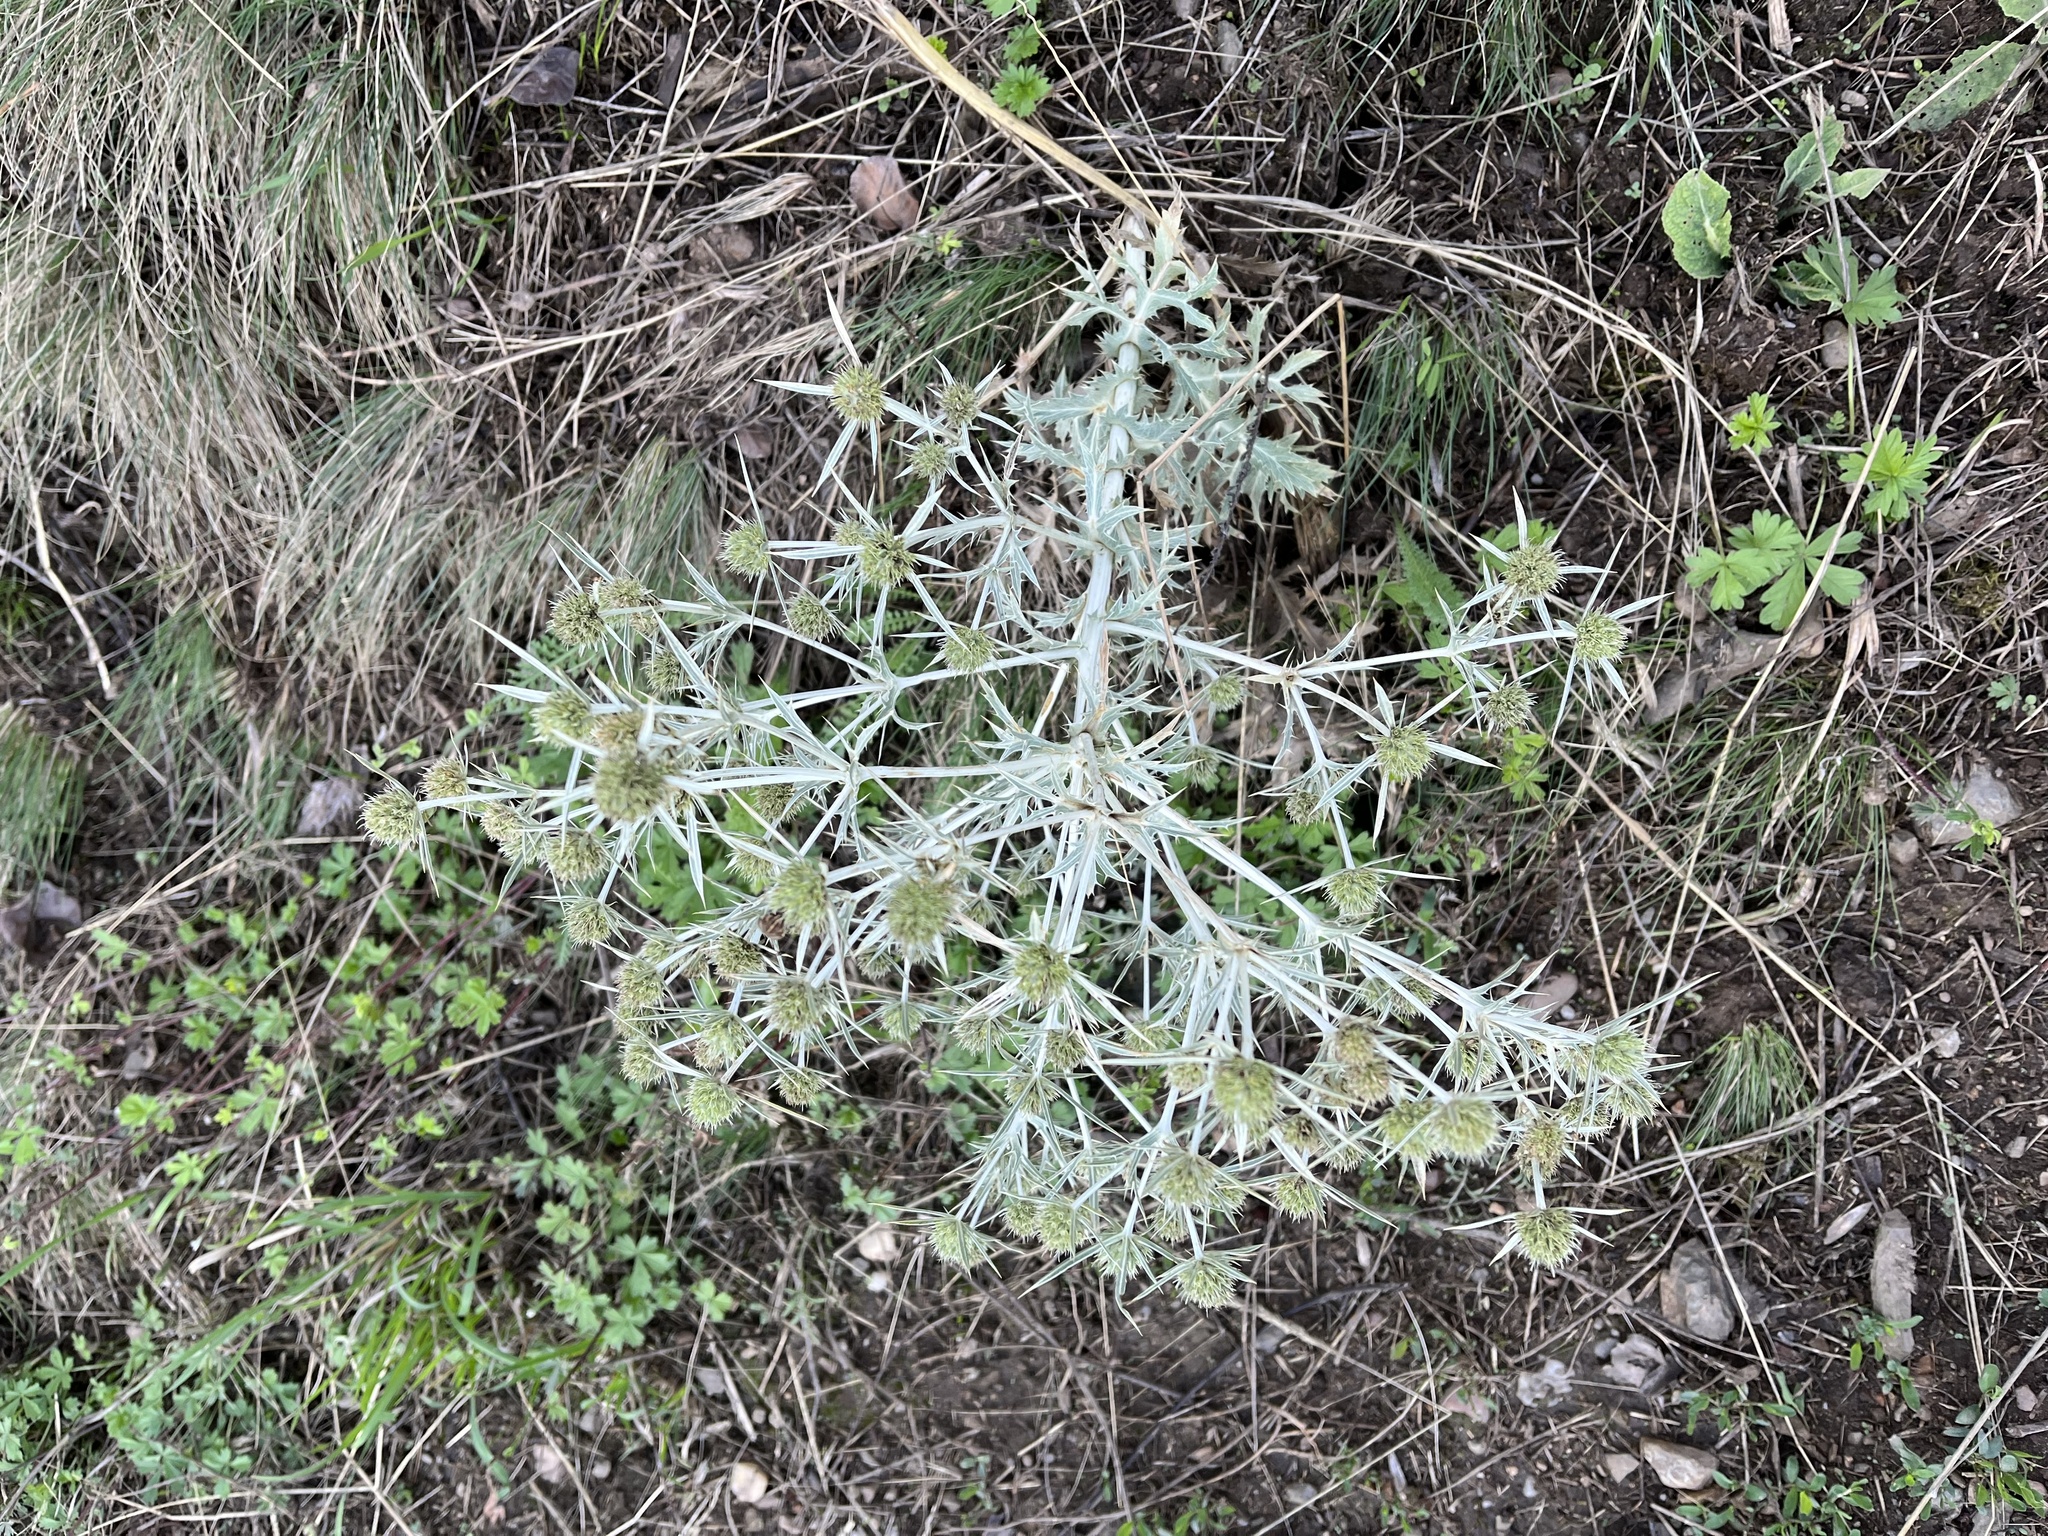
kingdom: Plantae
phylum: Tracheophyta
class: Magnoliopsida
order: Apiales
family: Apiaceae
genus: Eryngium
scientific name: Eryngium campestre
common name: Field eryngo
